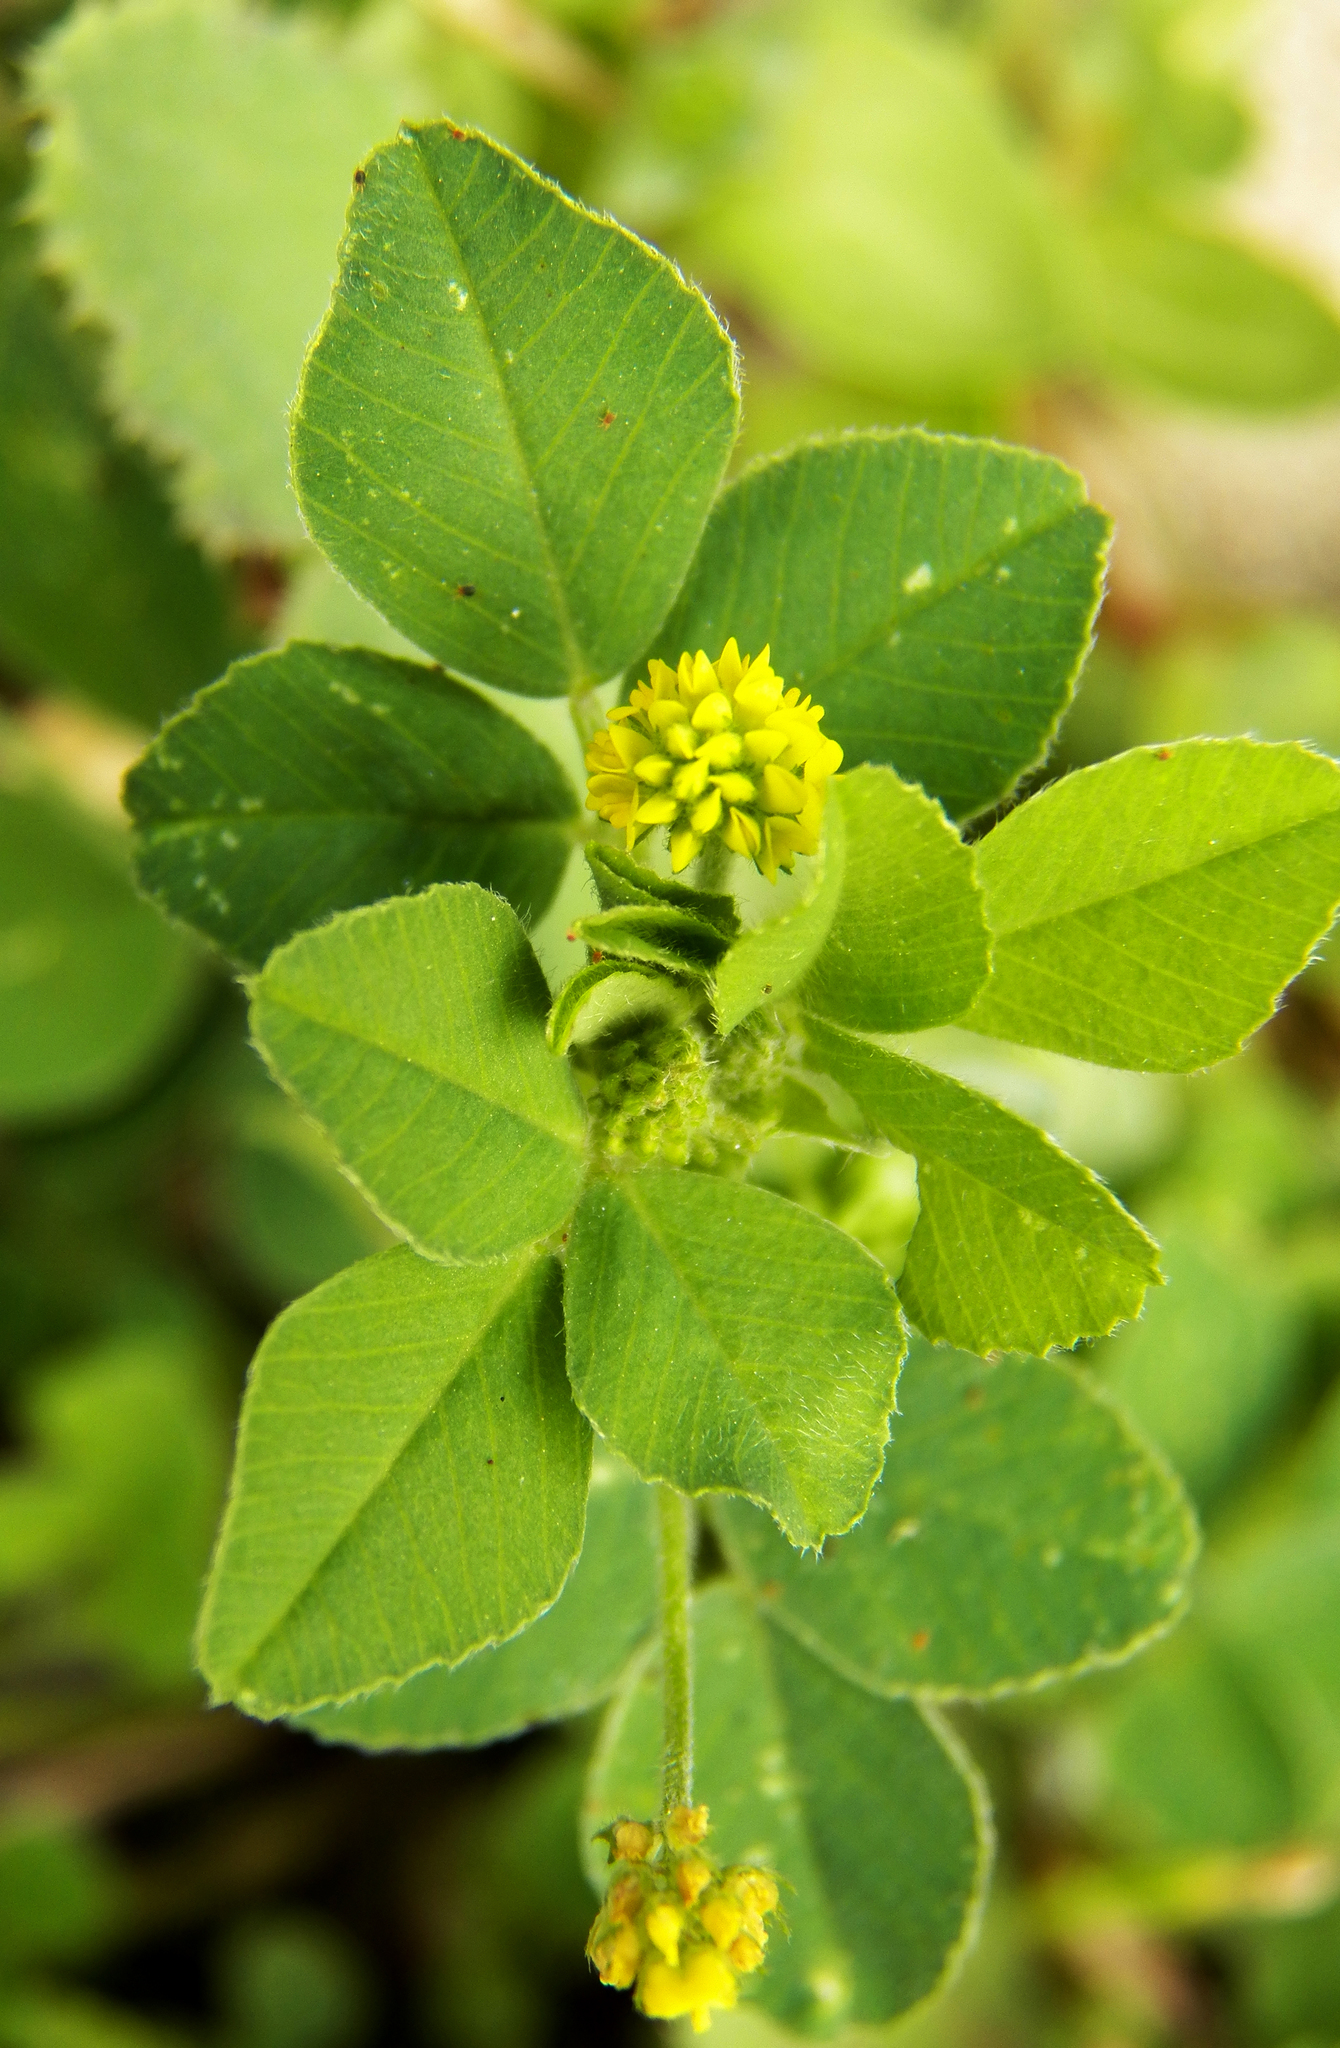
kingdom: Plantae
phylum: Tracheophyta
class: Magnoliopsida
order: Fabales
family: Fabaceae
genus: Medicago
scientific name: Medicago lupulina
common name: Black medick
